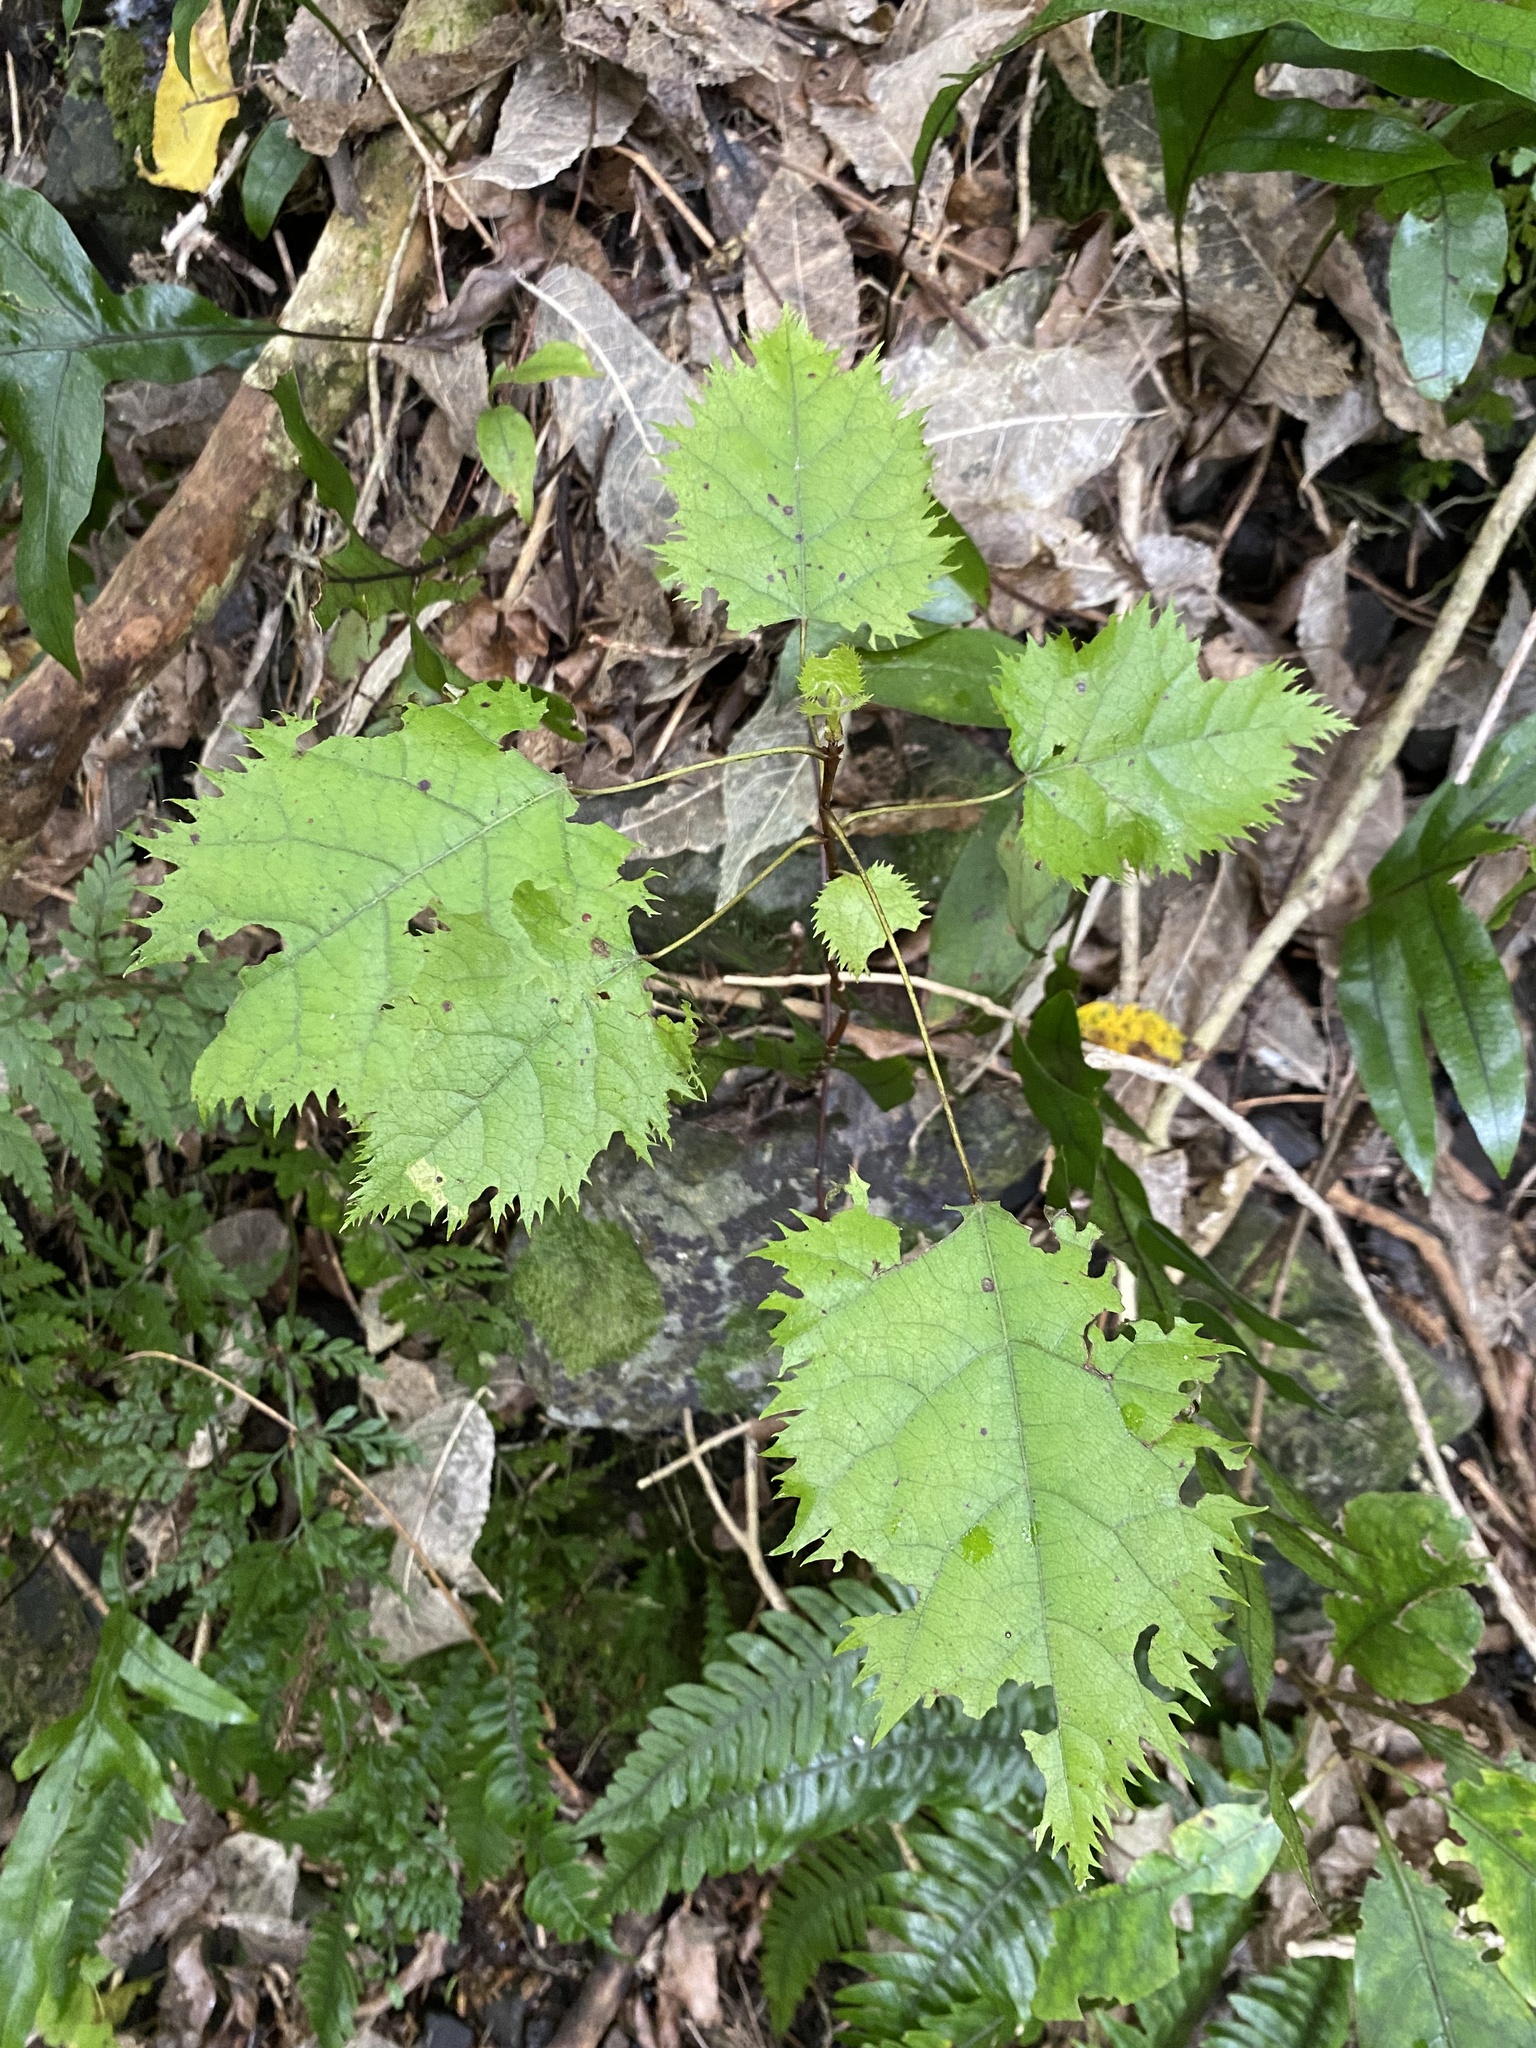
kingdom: Plantae
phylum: Tracheophyta
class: Magnoliopsida
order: Oxalidales
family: Elaeocarpaceae
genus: Aristotelia
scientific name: Aristotelia serrata
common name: New zealand wineberry
